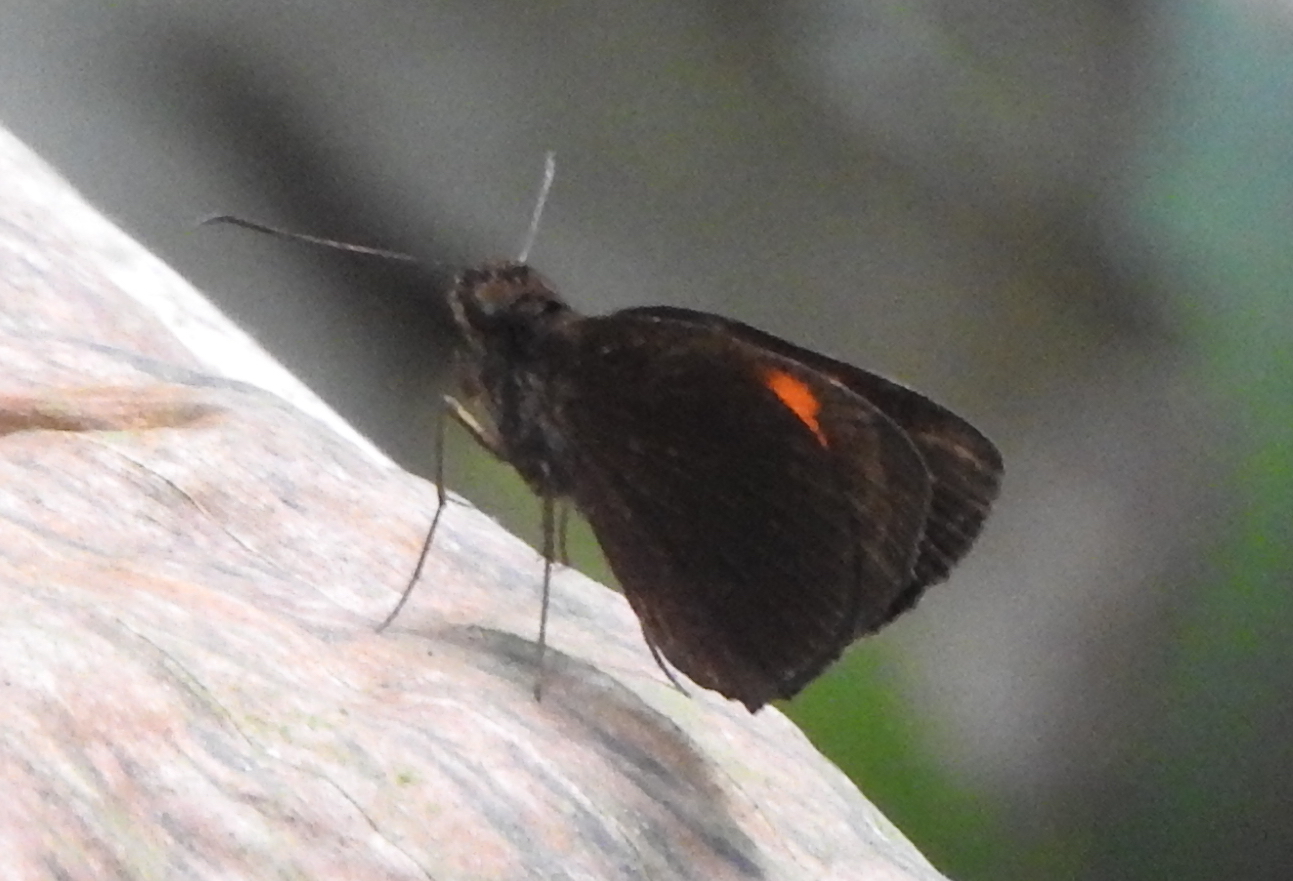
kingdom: Animalia
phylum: Arthropoda
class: Insecta
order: Lepidoptera
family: Hesperiidae
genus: Koruthaialos
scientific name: Koruthaialos rubecula
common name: Narrow-banded velvet bob
